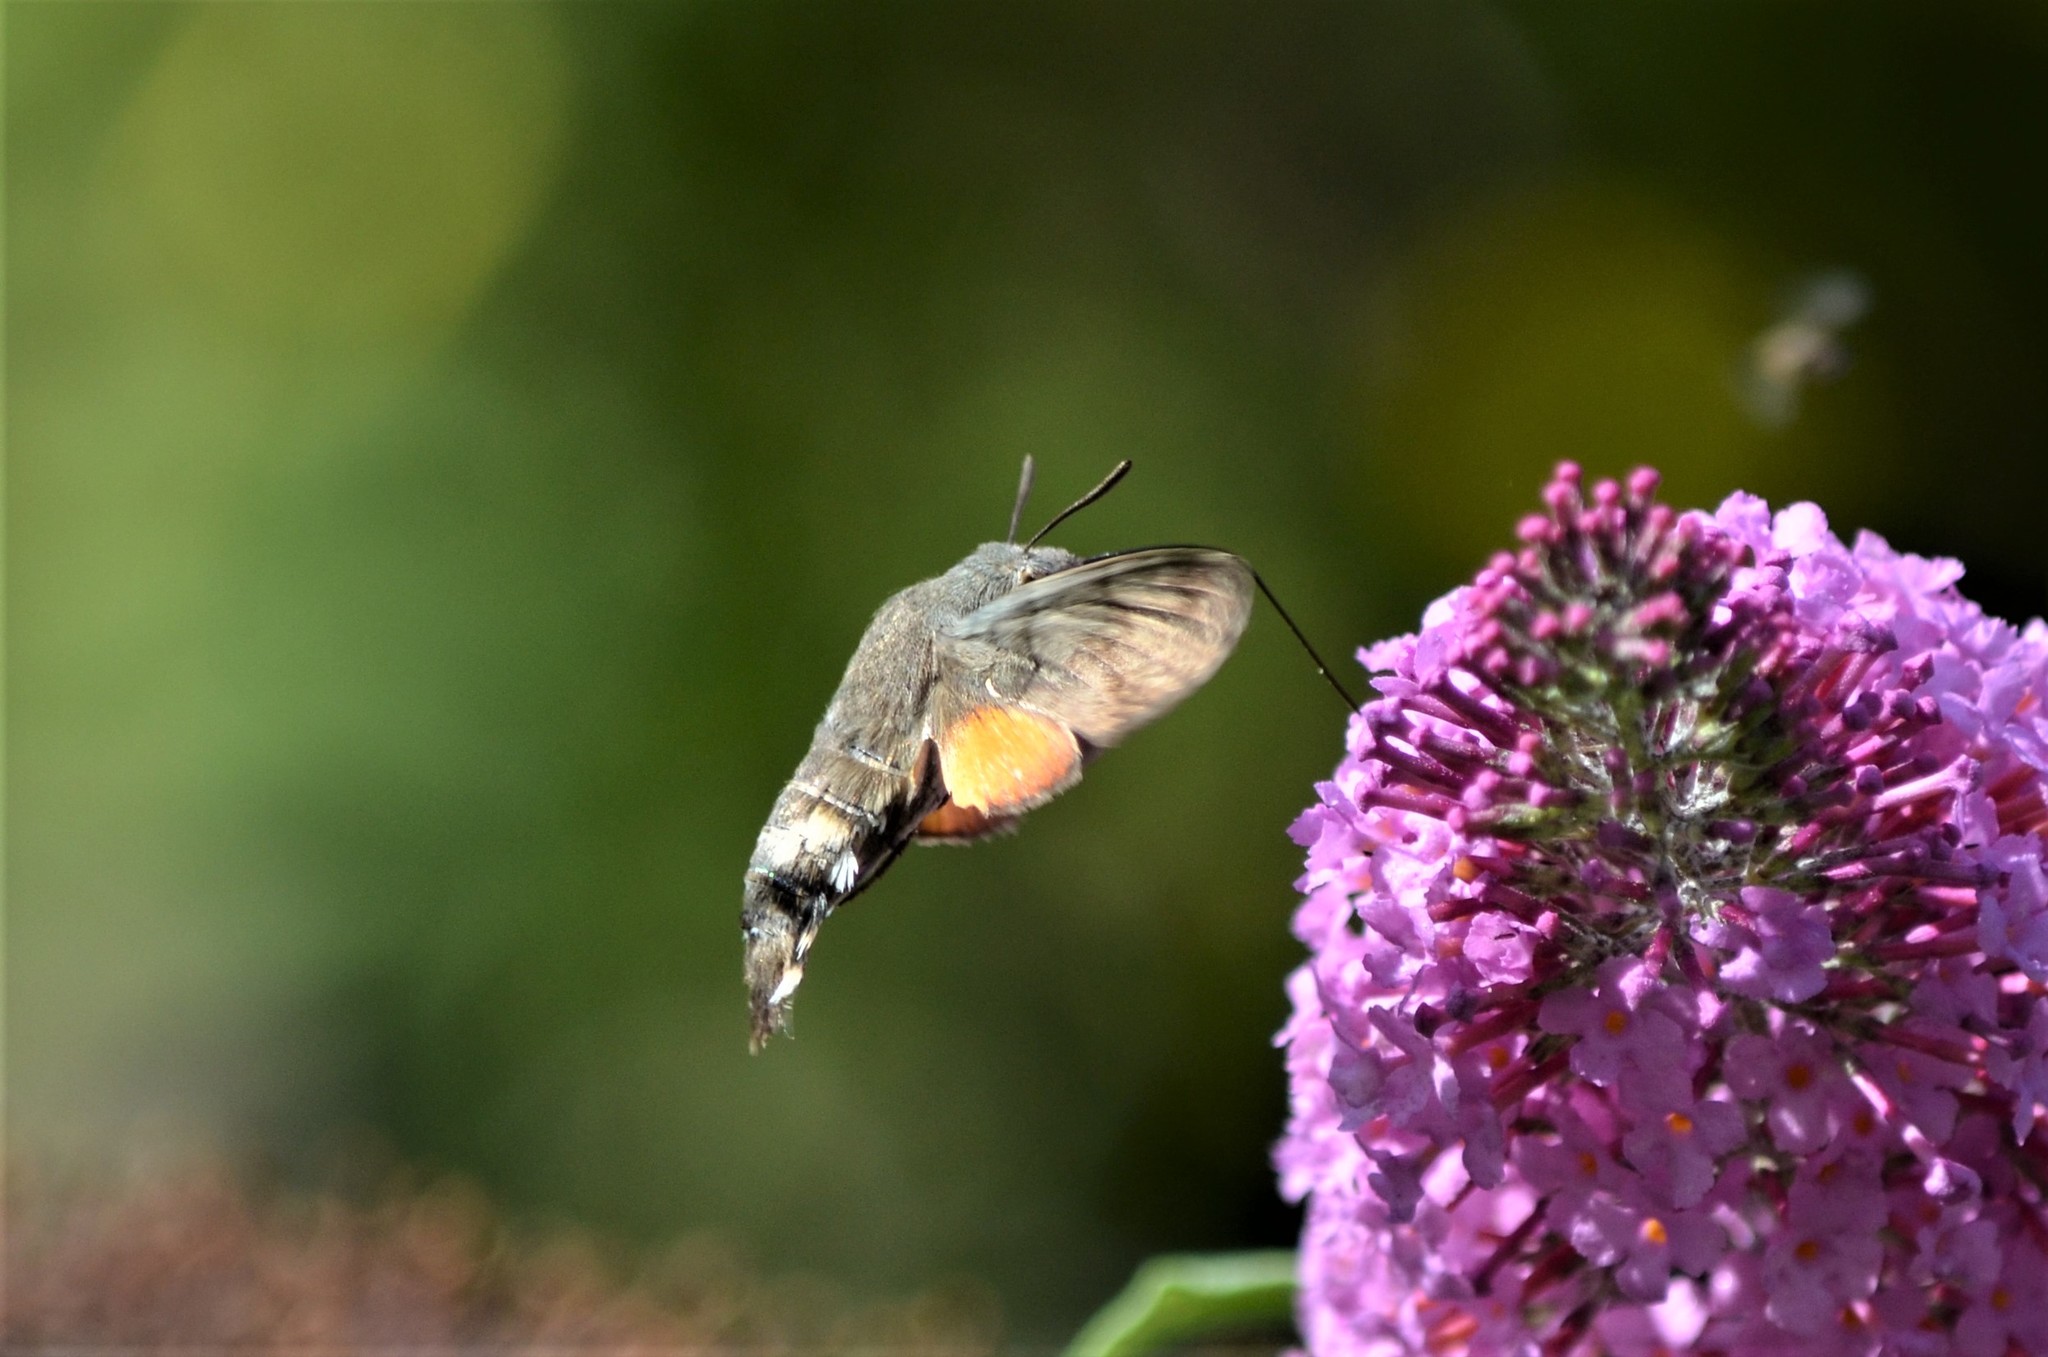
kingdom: Animalia
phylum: Arthropoda
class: Insecta
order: Lepidoptera
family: Sphingidae
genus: Macroglossum
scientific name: Macroglossum stellatarum
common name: Humming-bird hawk-moth
